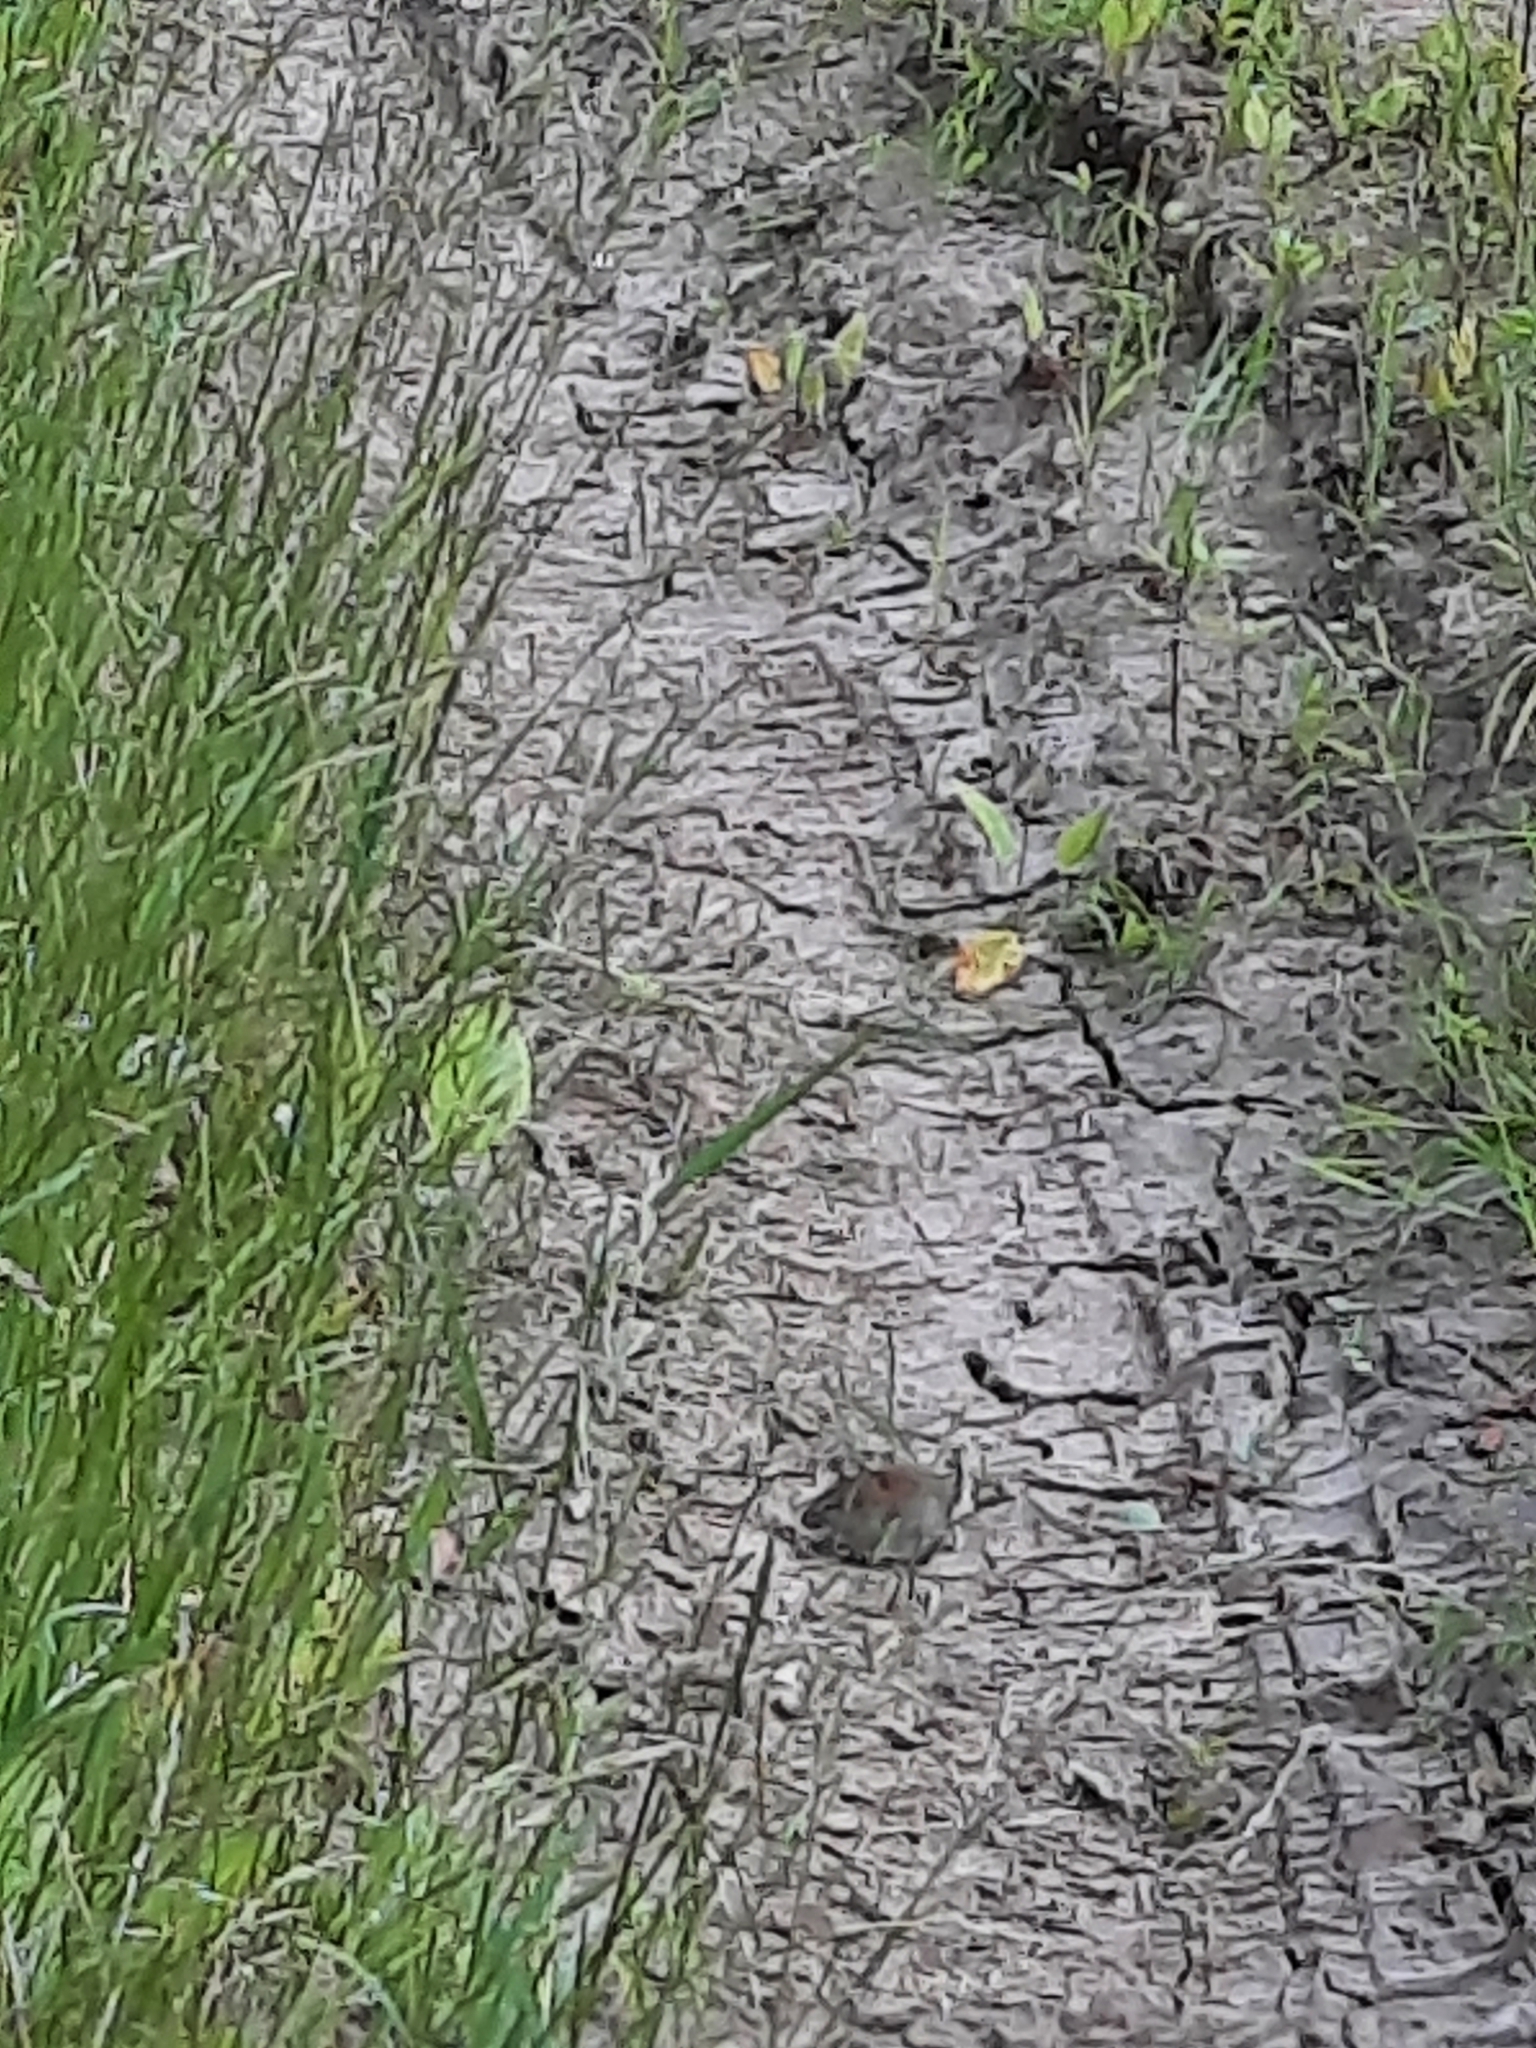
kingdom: Animalia
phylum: Chordata
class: Mammalia
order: Rodentia
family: Cricetidae
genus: Myodes
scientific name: Myodes glareolus
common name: Bank vole
